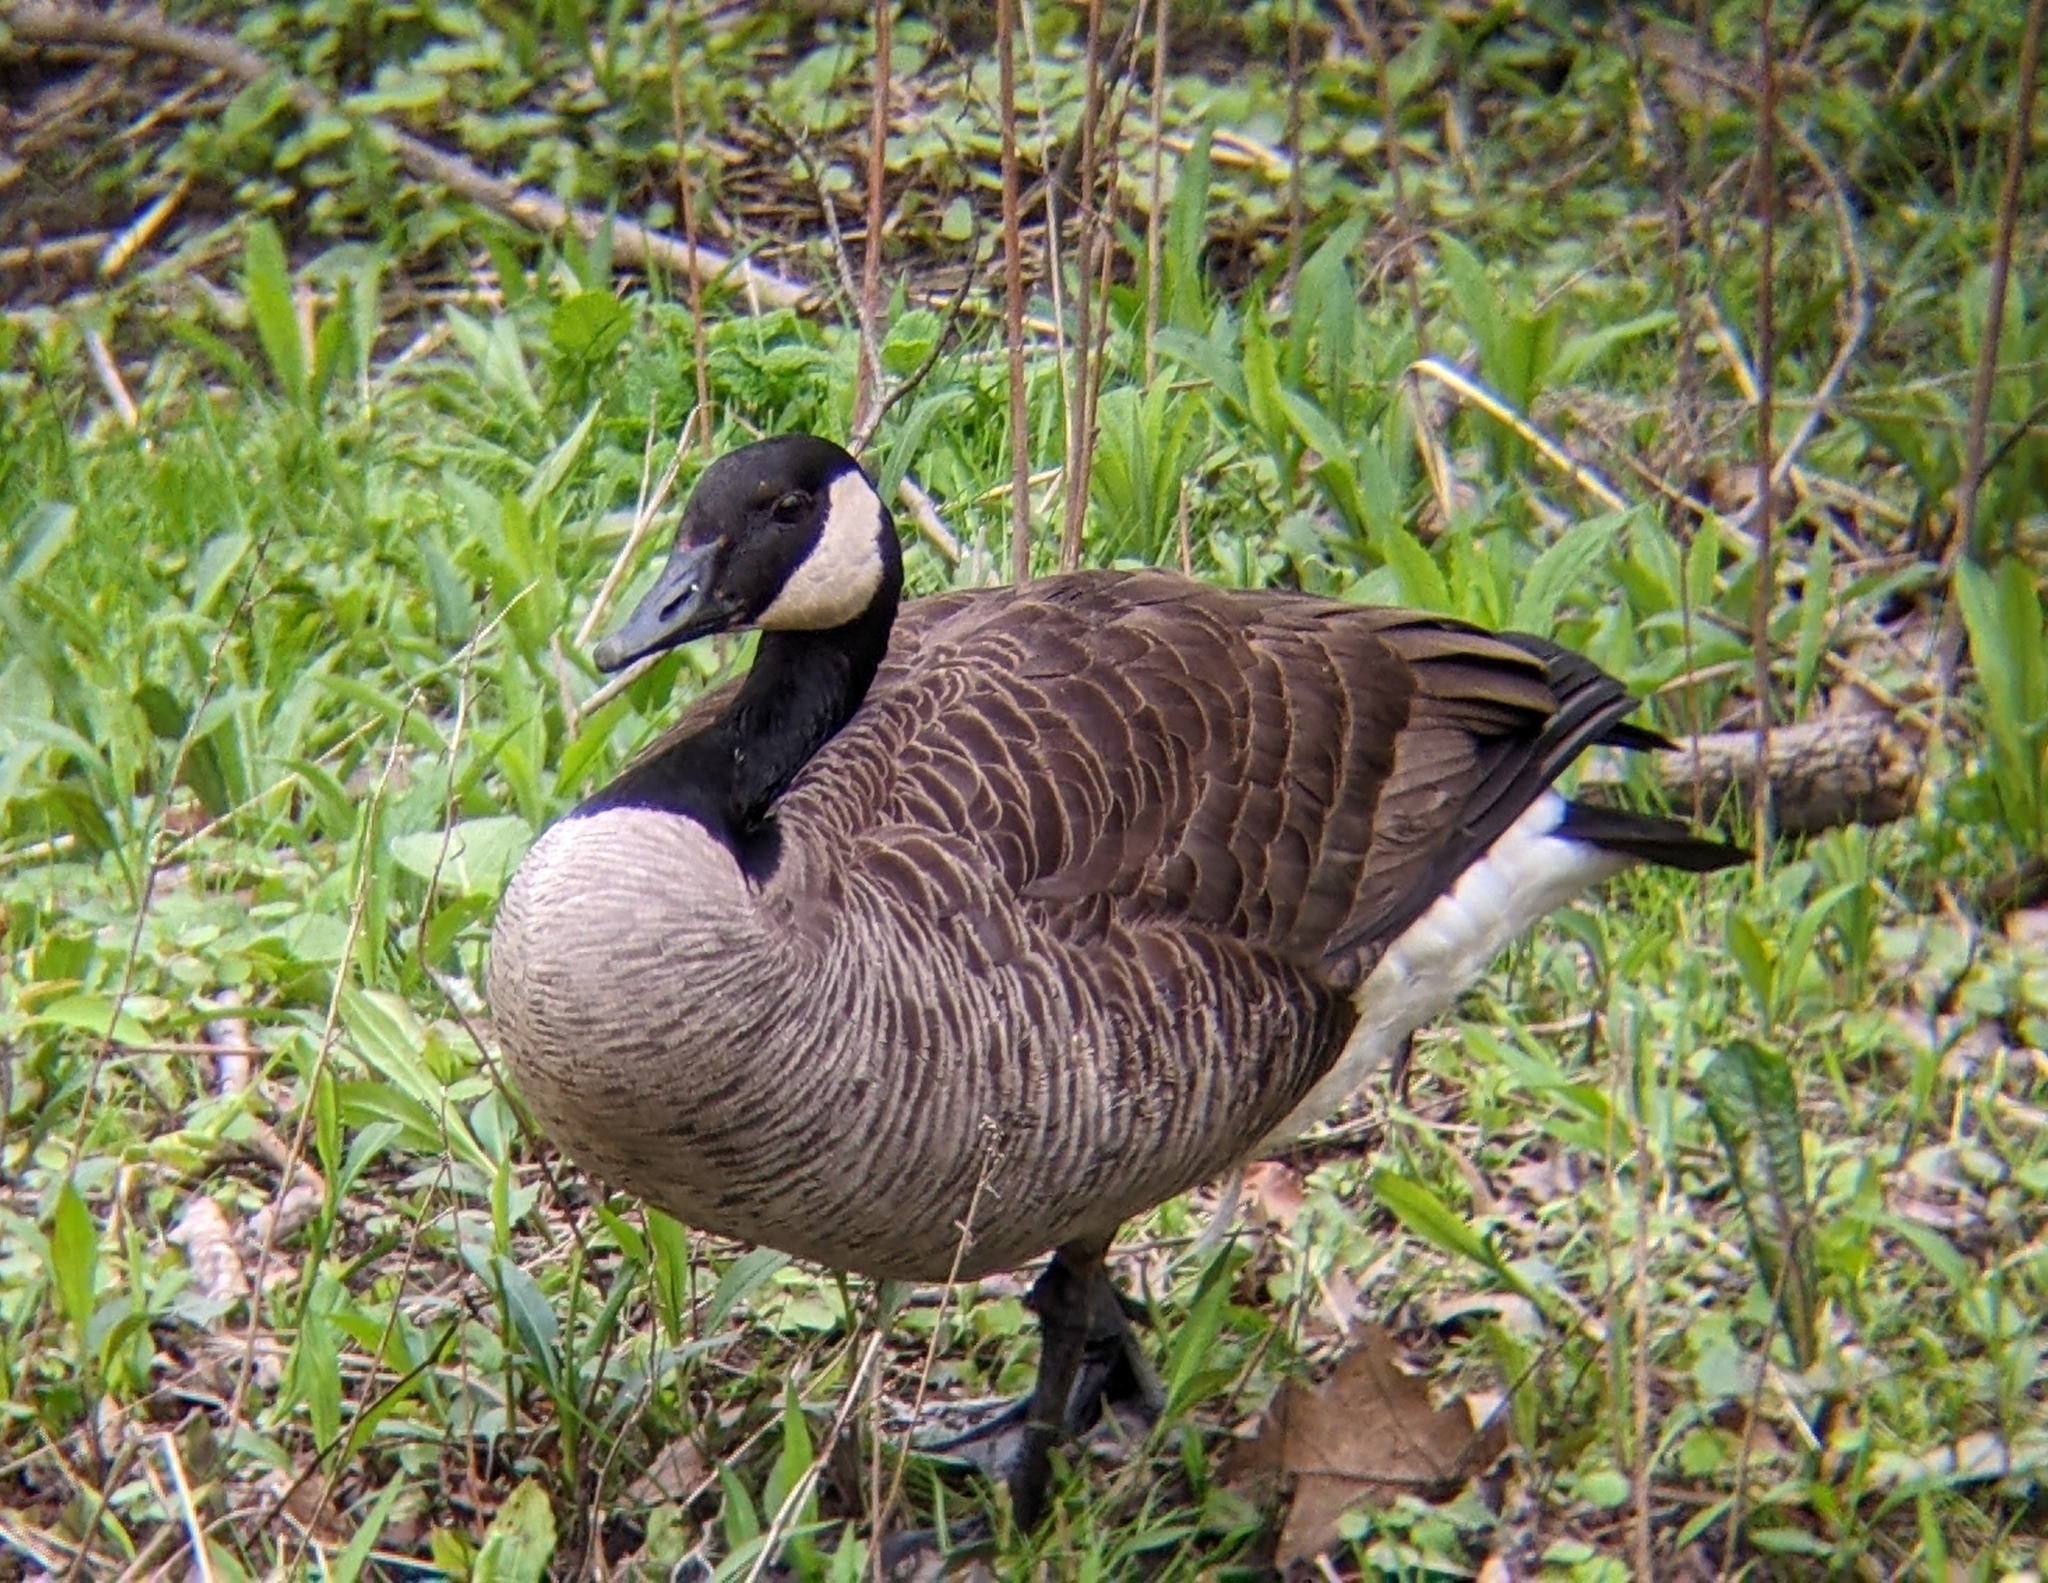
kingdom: Animalia
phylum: Chordata
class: Aves
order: Anseriformes
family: Anatidae
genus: Branta
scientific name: Branta canadensis
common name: Canada goose
